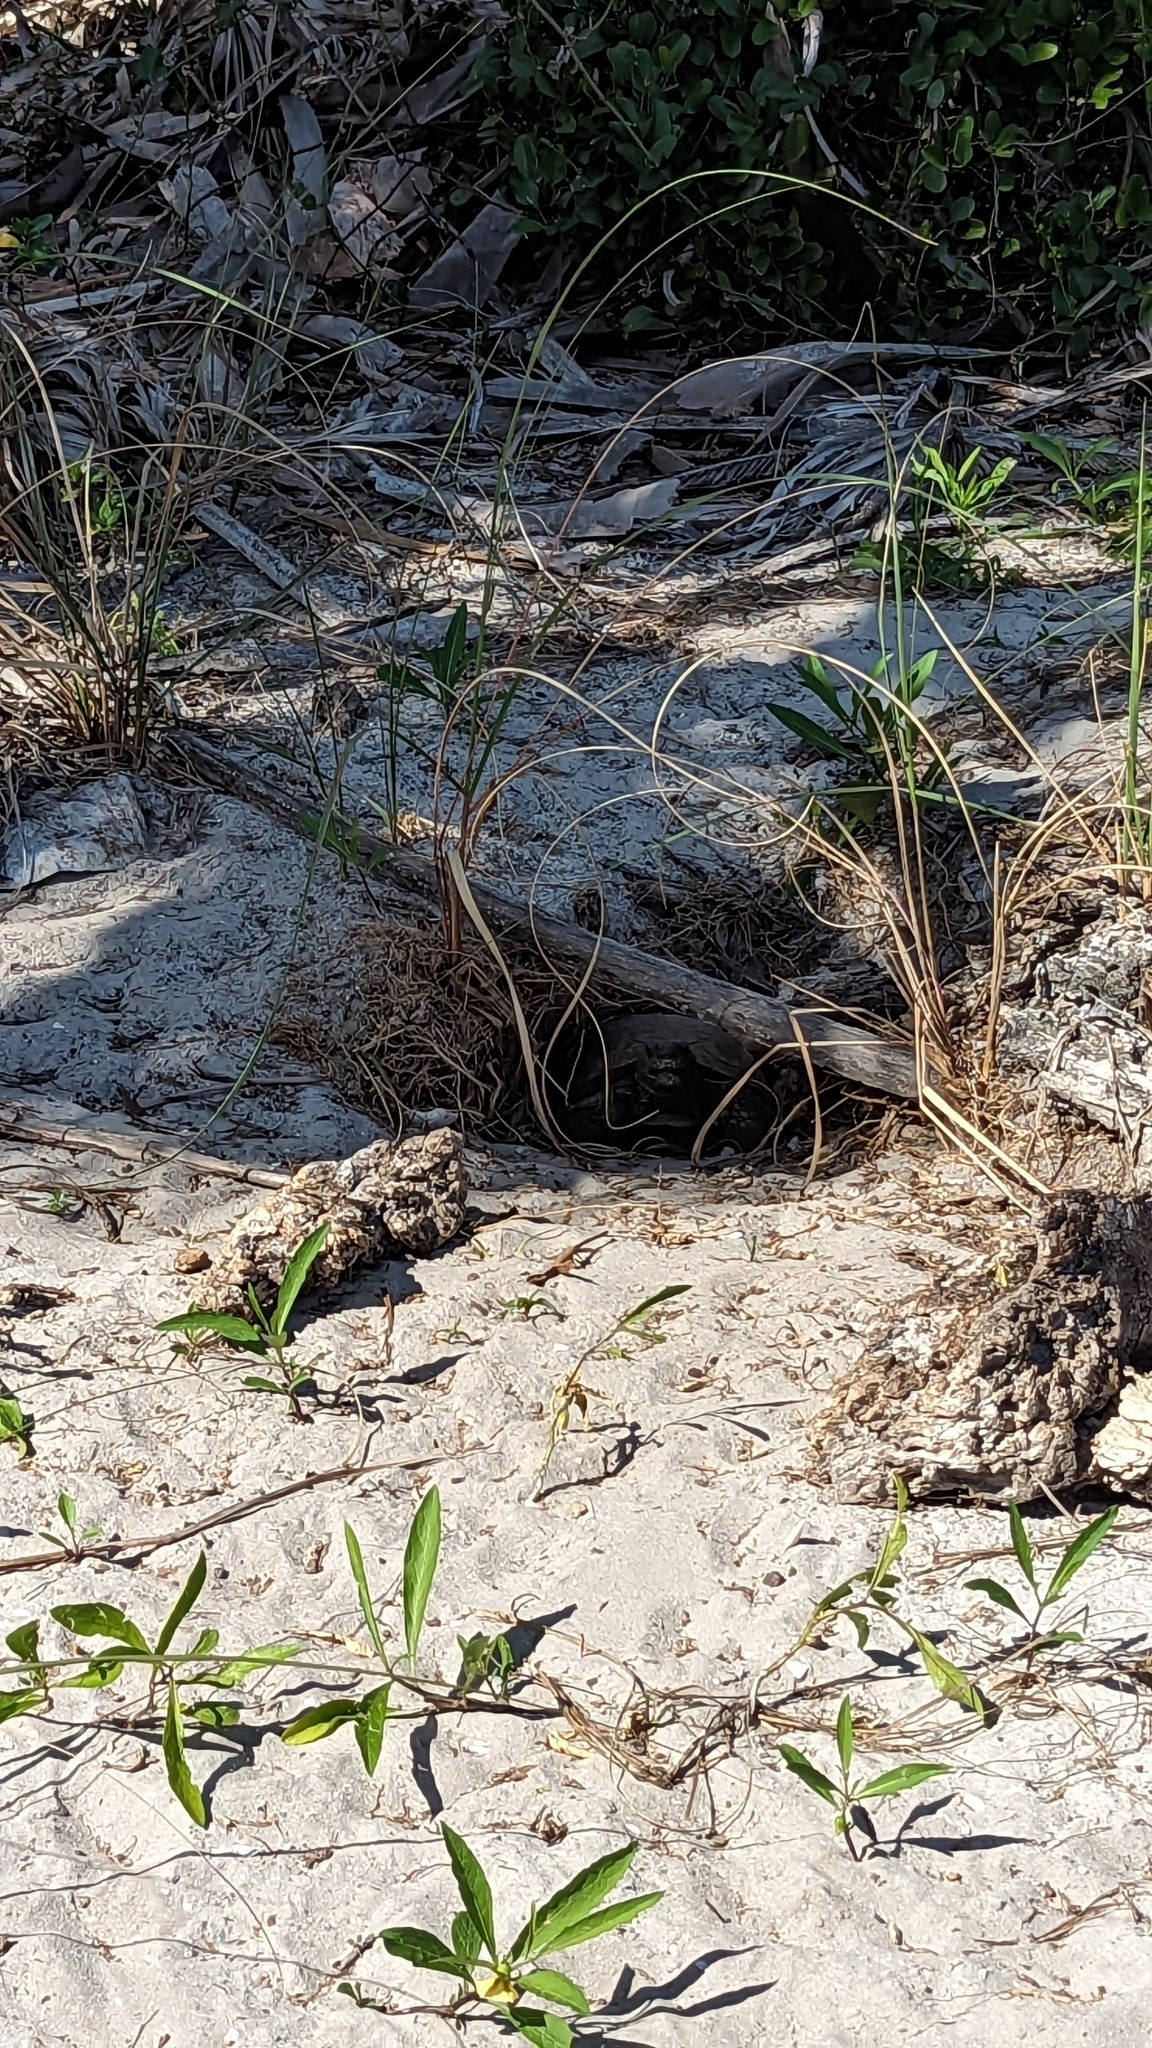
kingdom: Animalia
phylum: Chordata
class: Testudines
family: Testudinidae
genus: Gopherus
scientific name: Gopherus polyphemus
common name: Florida gopher tortoise
